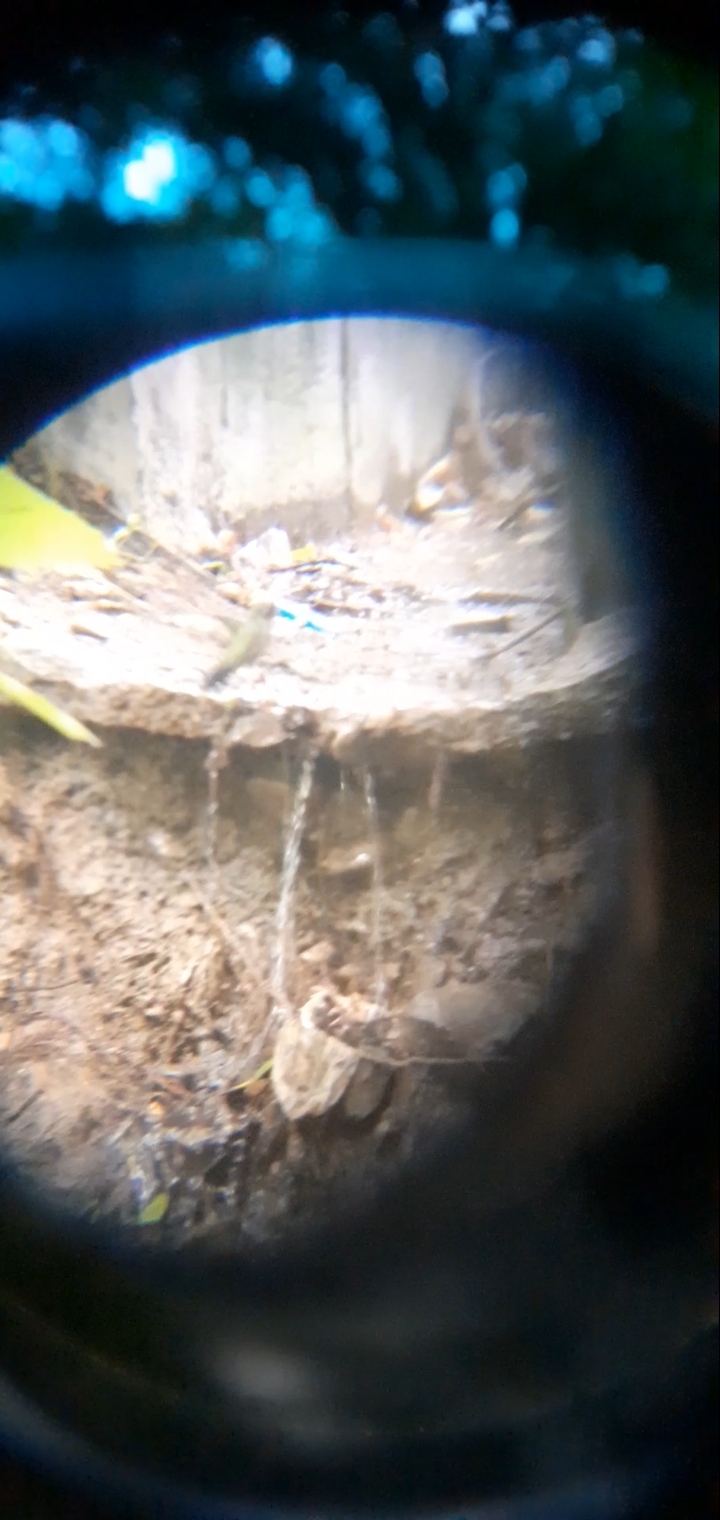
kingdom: Animalia
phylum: Chordata
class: Aves
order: Apodiformes
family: Trochilidae
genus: Cynanthus
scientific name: Cynanthus latirostris
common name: Broad-billed hummingbird
